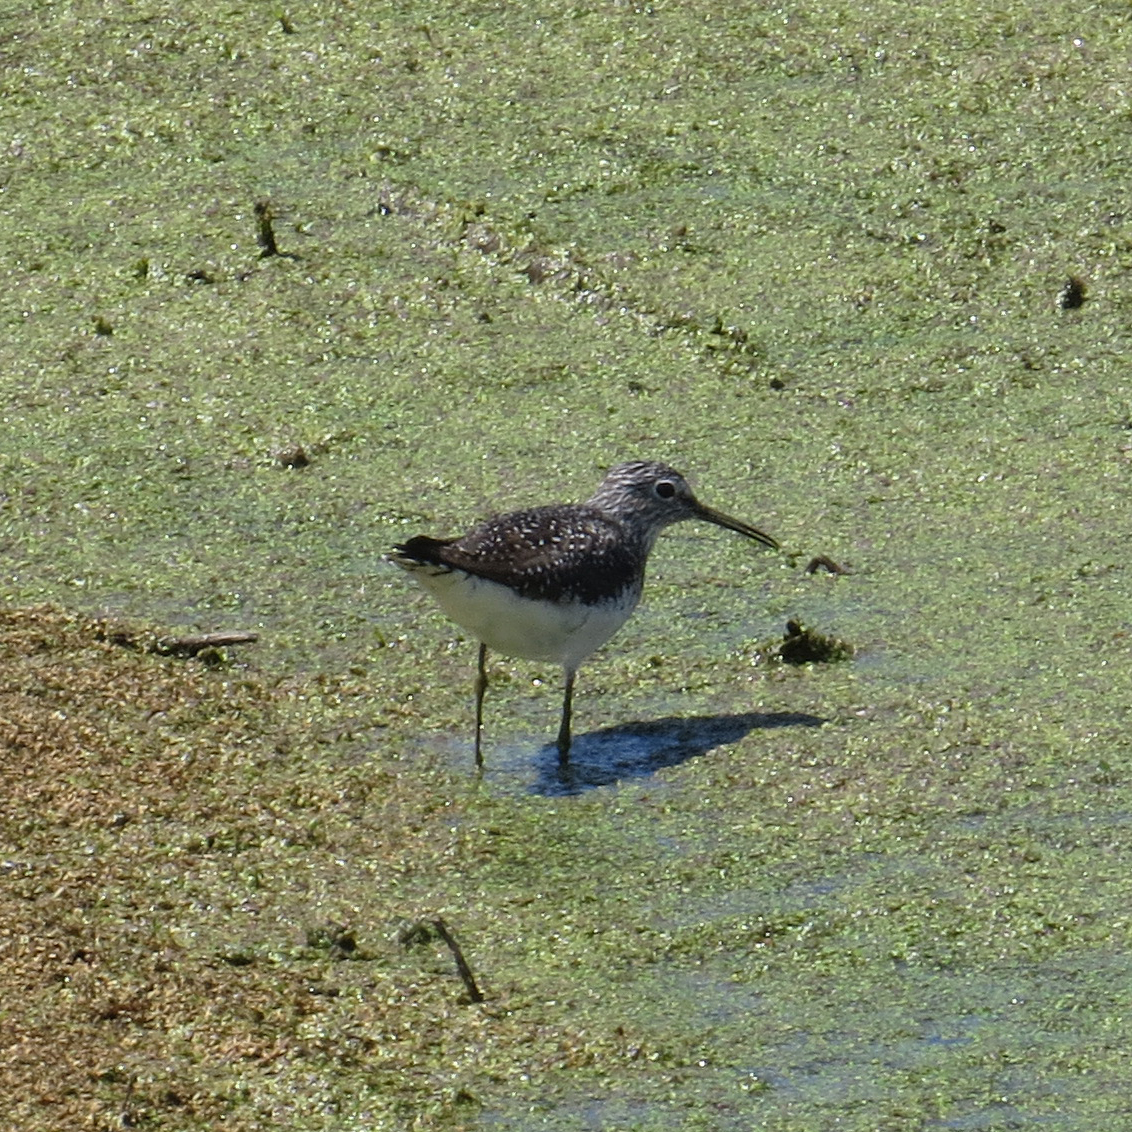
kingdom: Animalia
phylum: Chordata
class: Aves
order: Charadriiformes
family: Scolopacidae
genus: Tringa
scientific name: Tringa solitaria
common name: Solitary sandpiper
